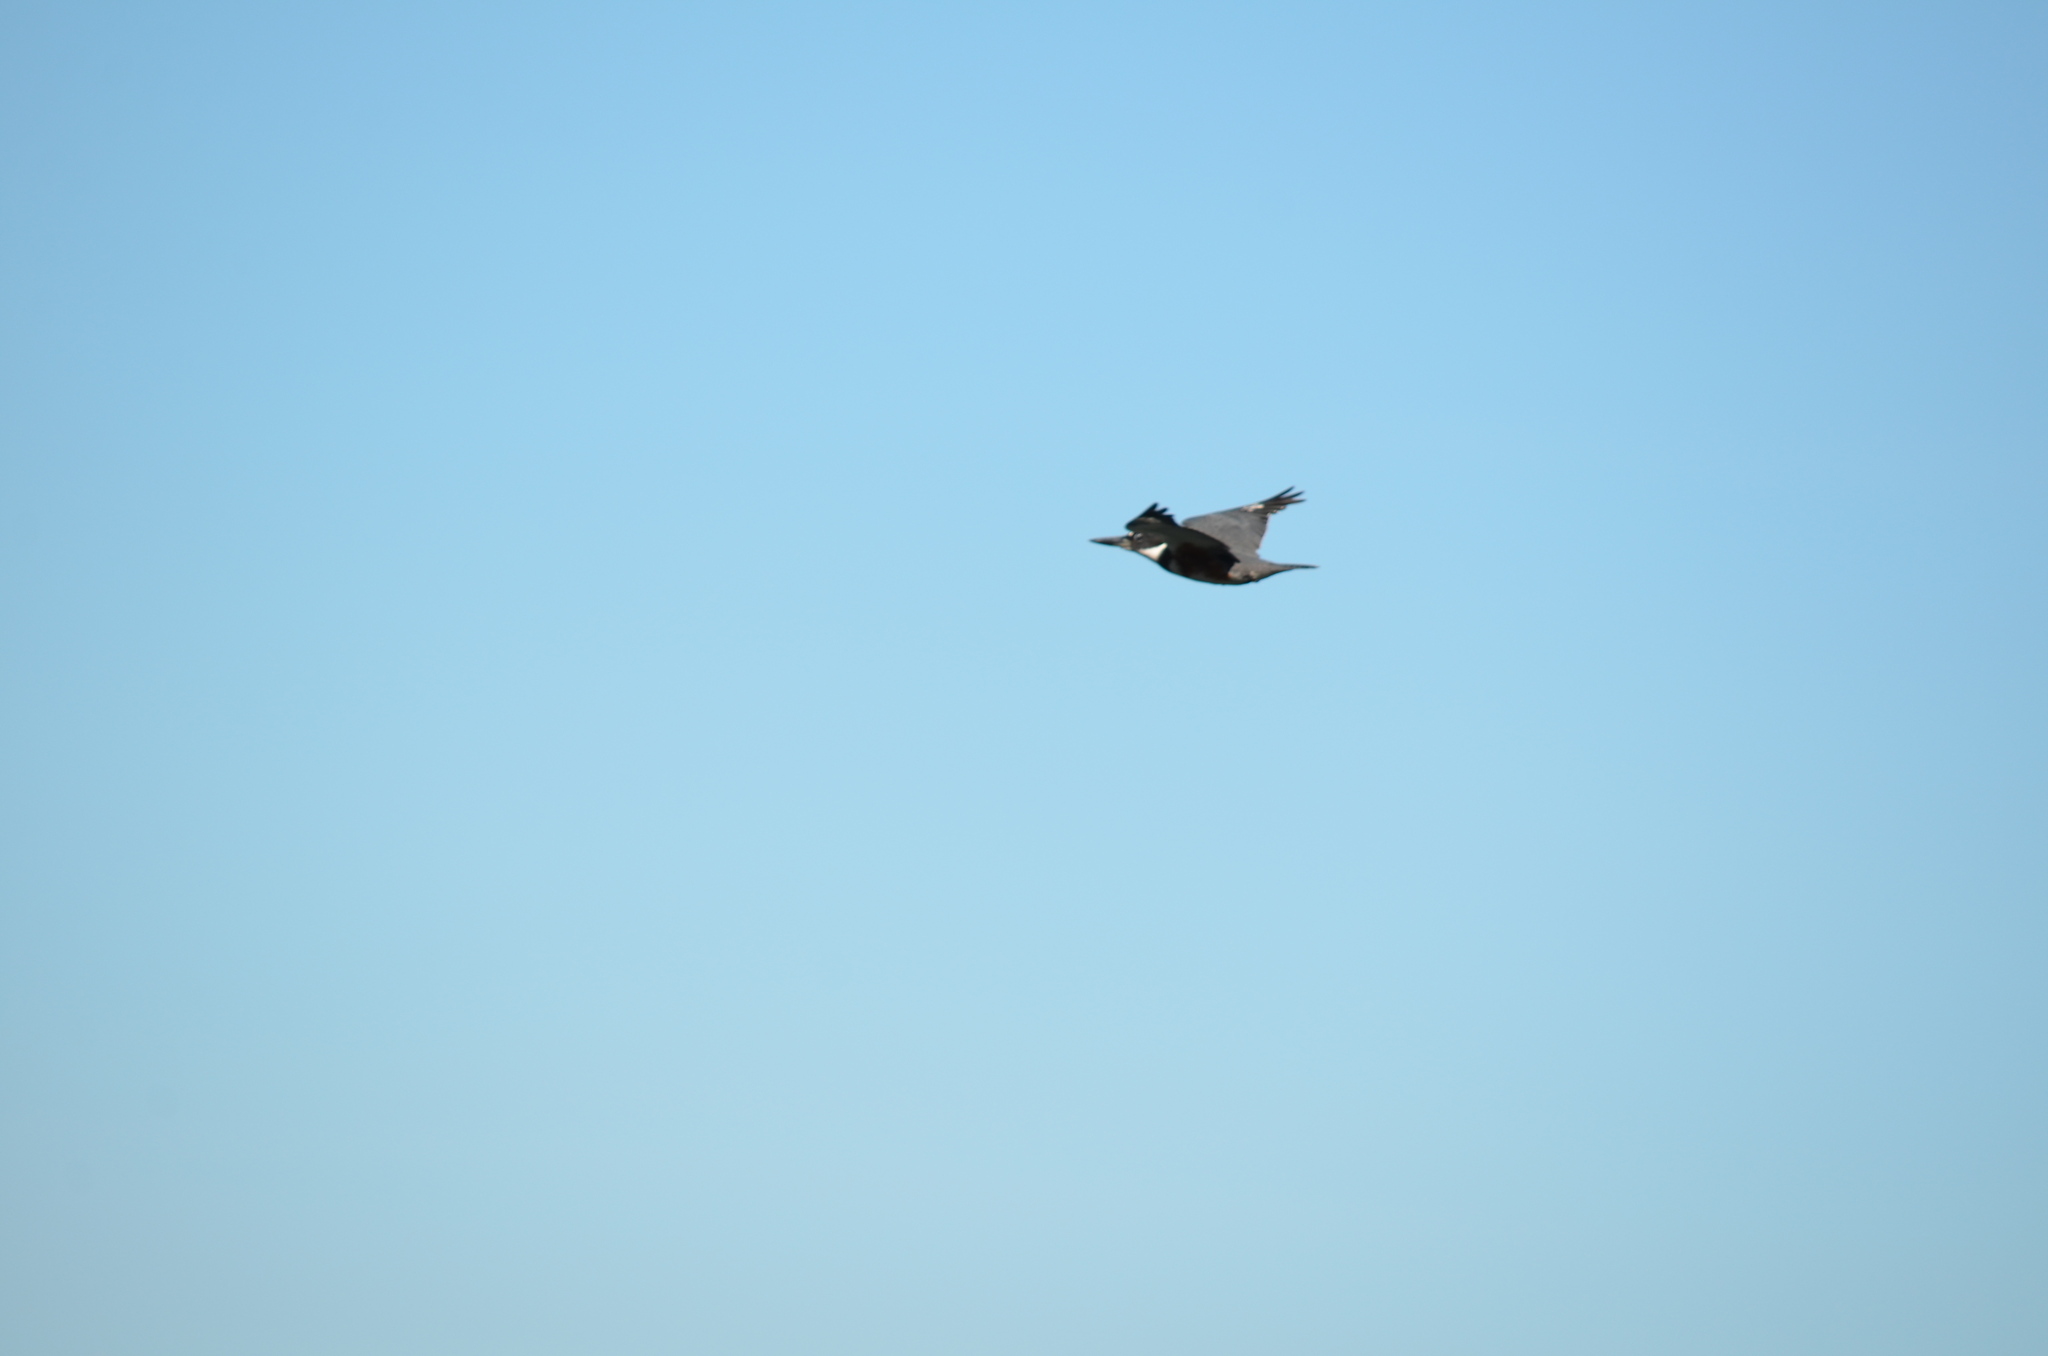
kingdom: Animalia
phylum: Chordata
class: Aves
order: Coraciiformes
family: Alcedinidae
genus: Megaceryle
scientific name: Megaceryle alcyon
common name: Belted kingfisher
